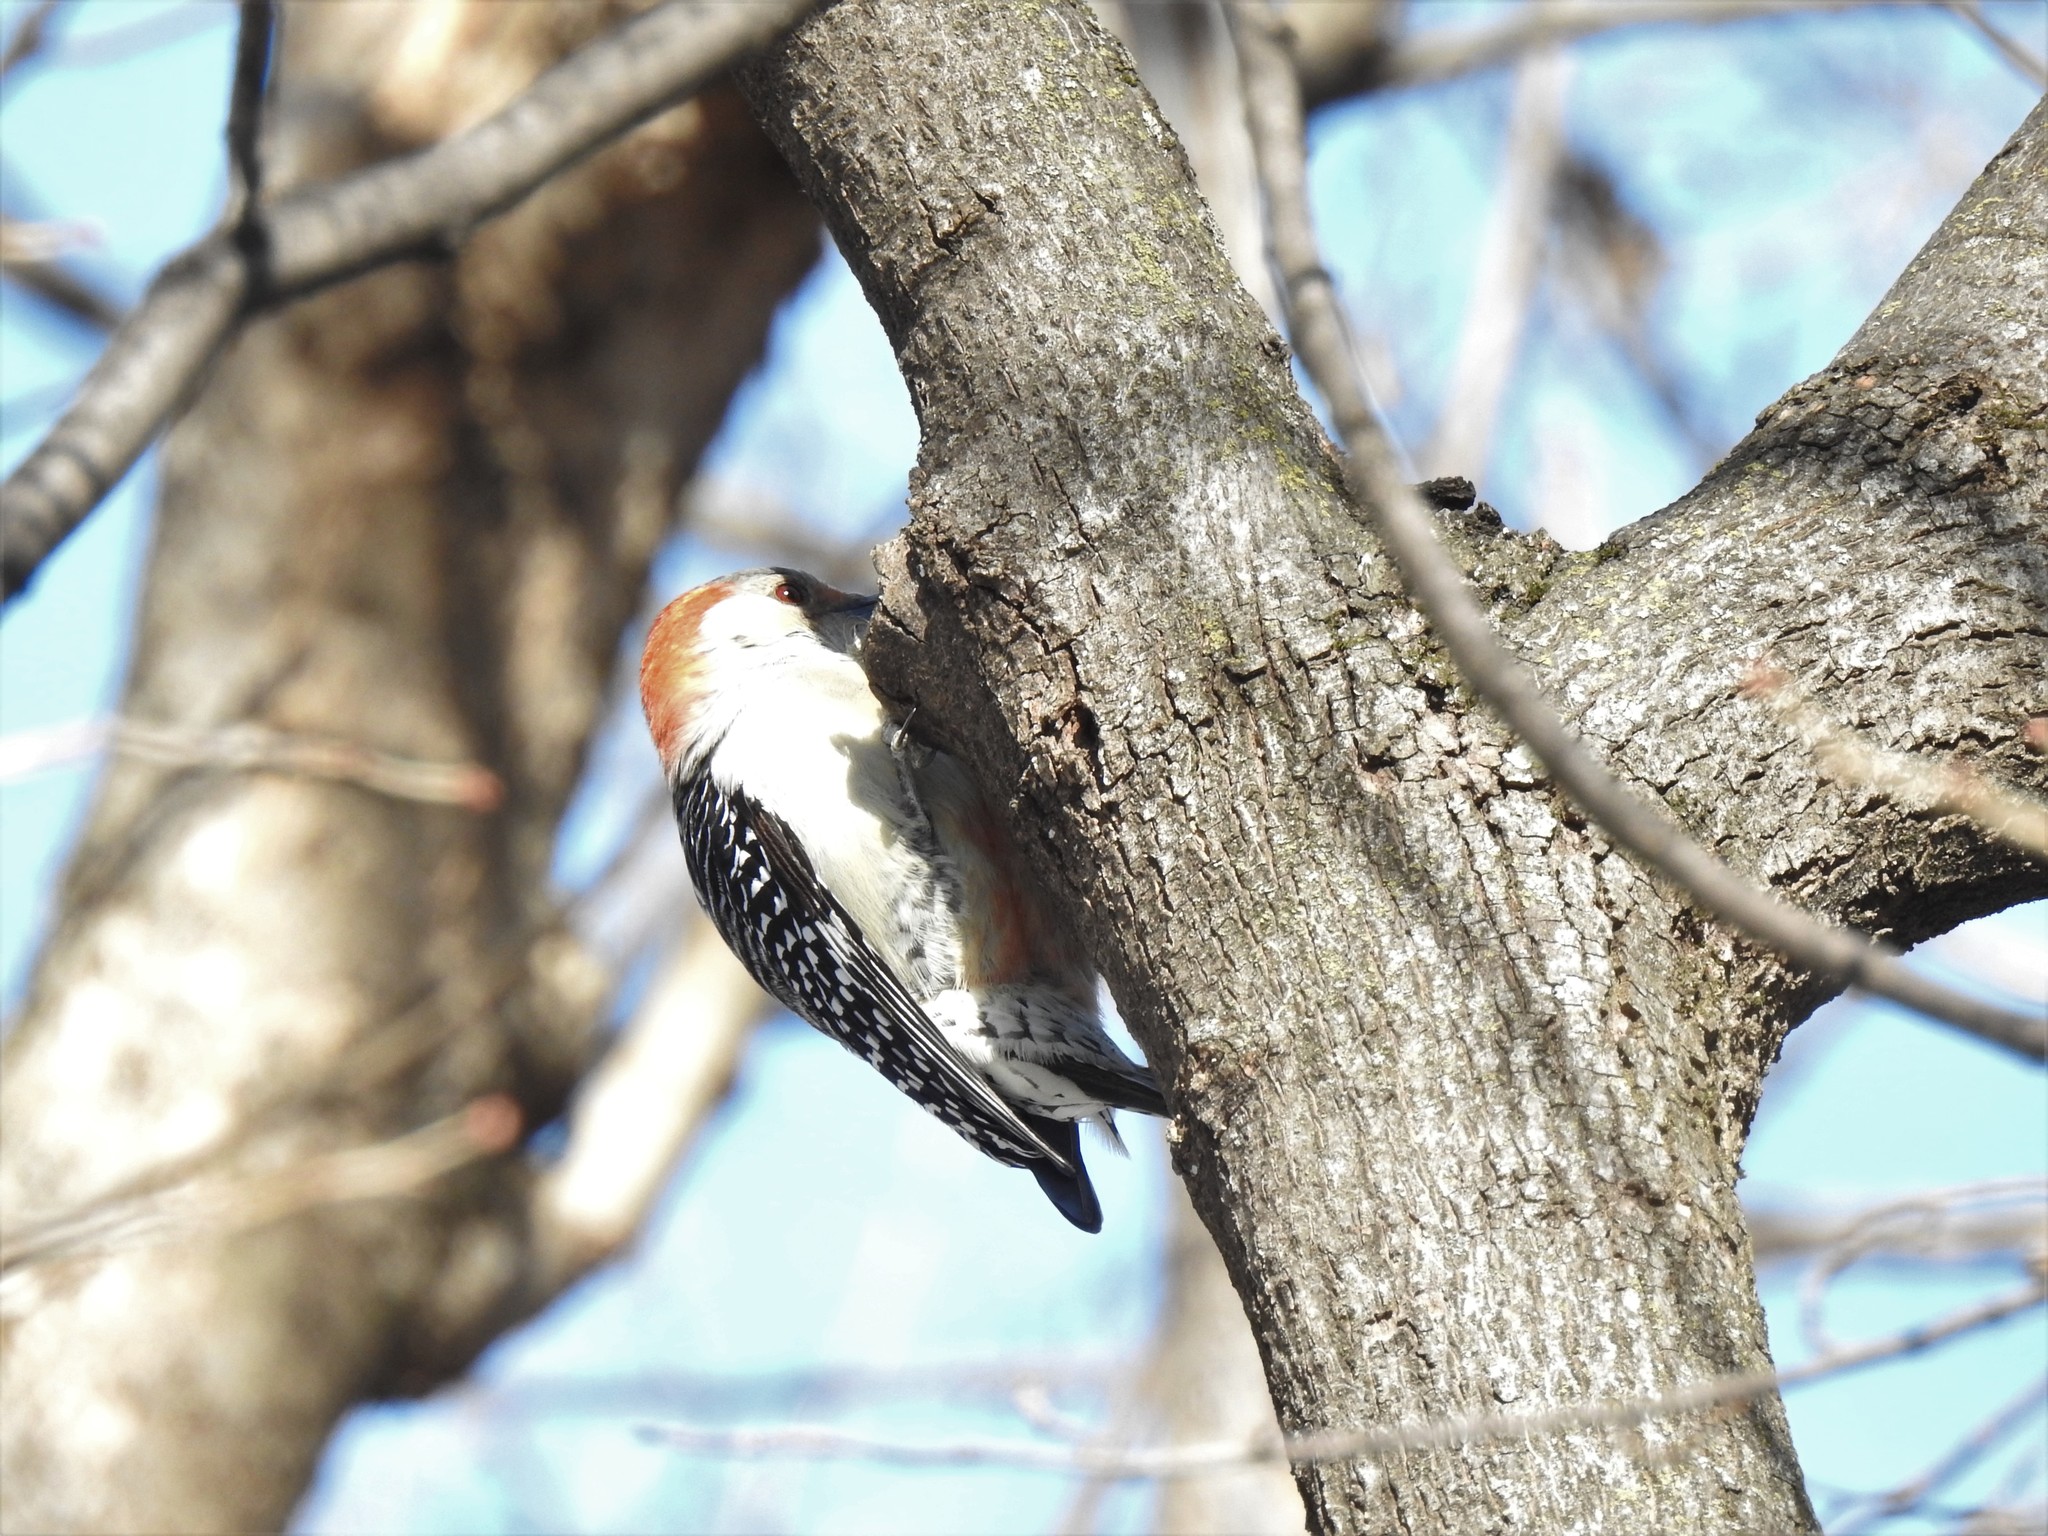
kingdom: Animalia
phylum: Chordata
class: Aves
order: Piciformes
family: Picidae
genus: Melanerpes
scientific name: Melanerpes carolinus
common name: Red-bellied woodpecker
